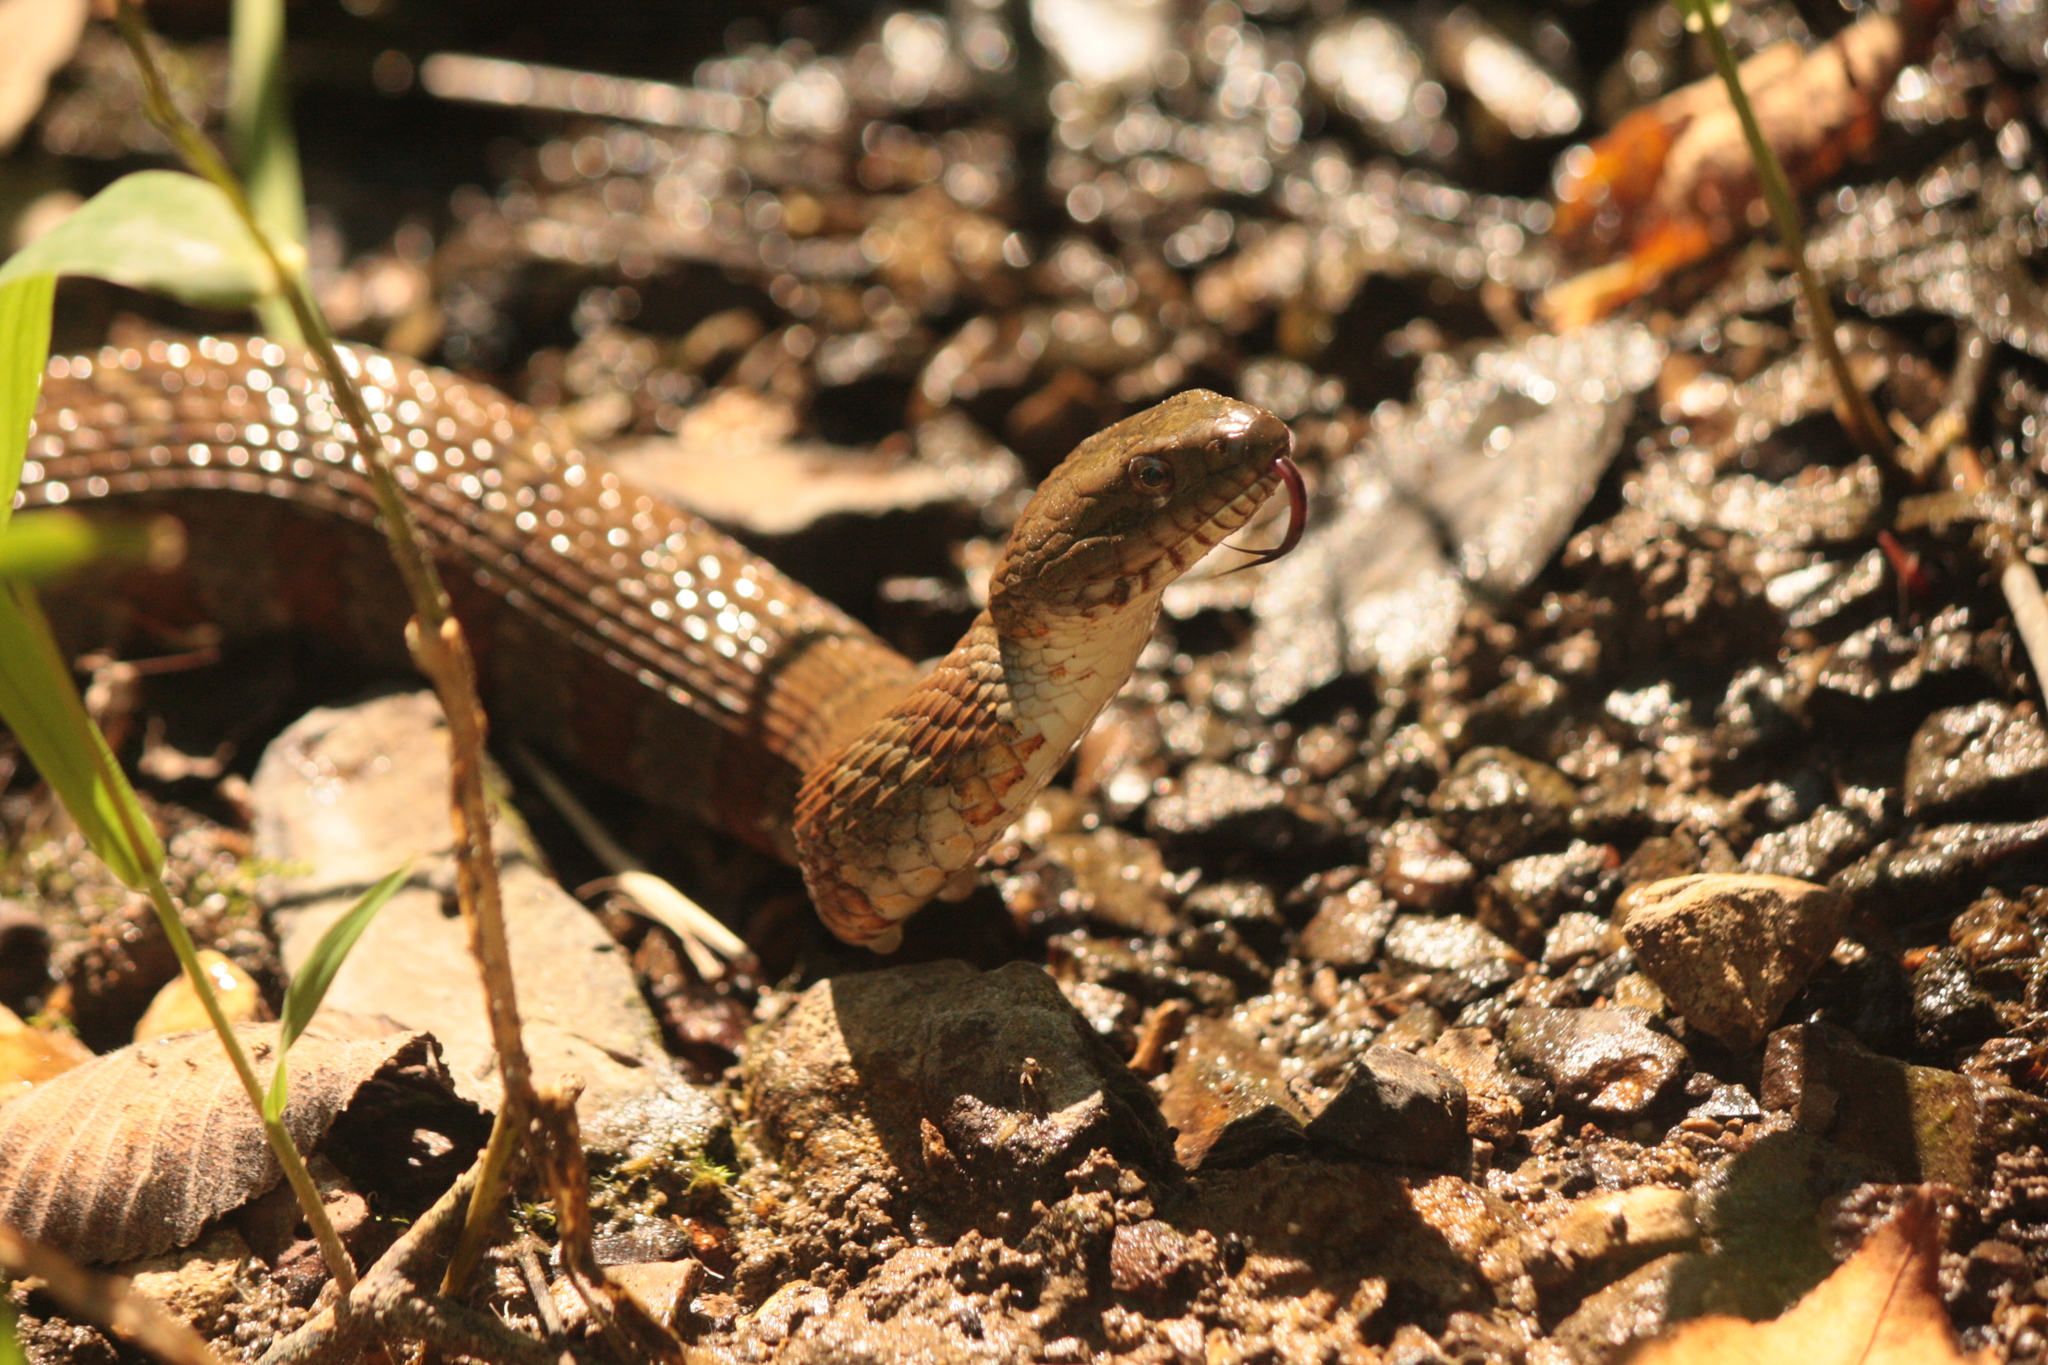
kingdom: Animalia
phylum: Chordata
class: Squamata
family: Colubridae
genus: Nerodia
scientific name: Nerodia sipedon
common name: Northern water snake
